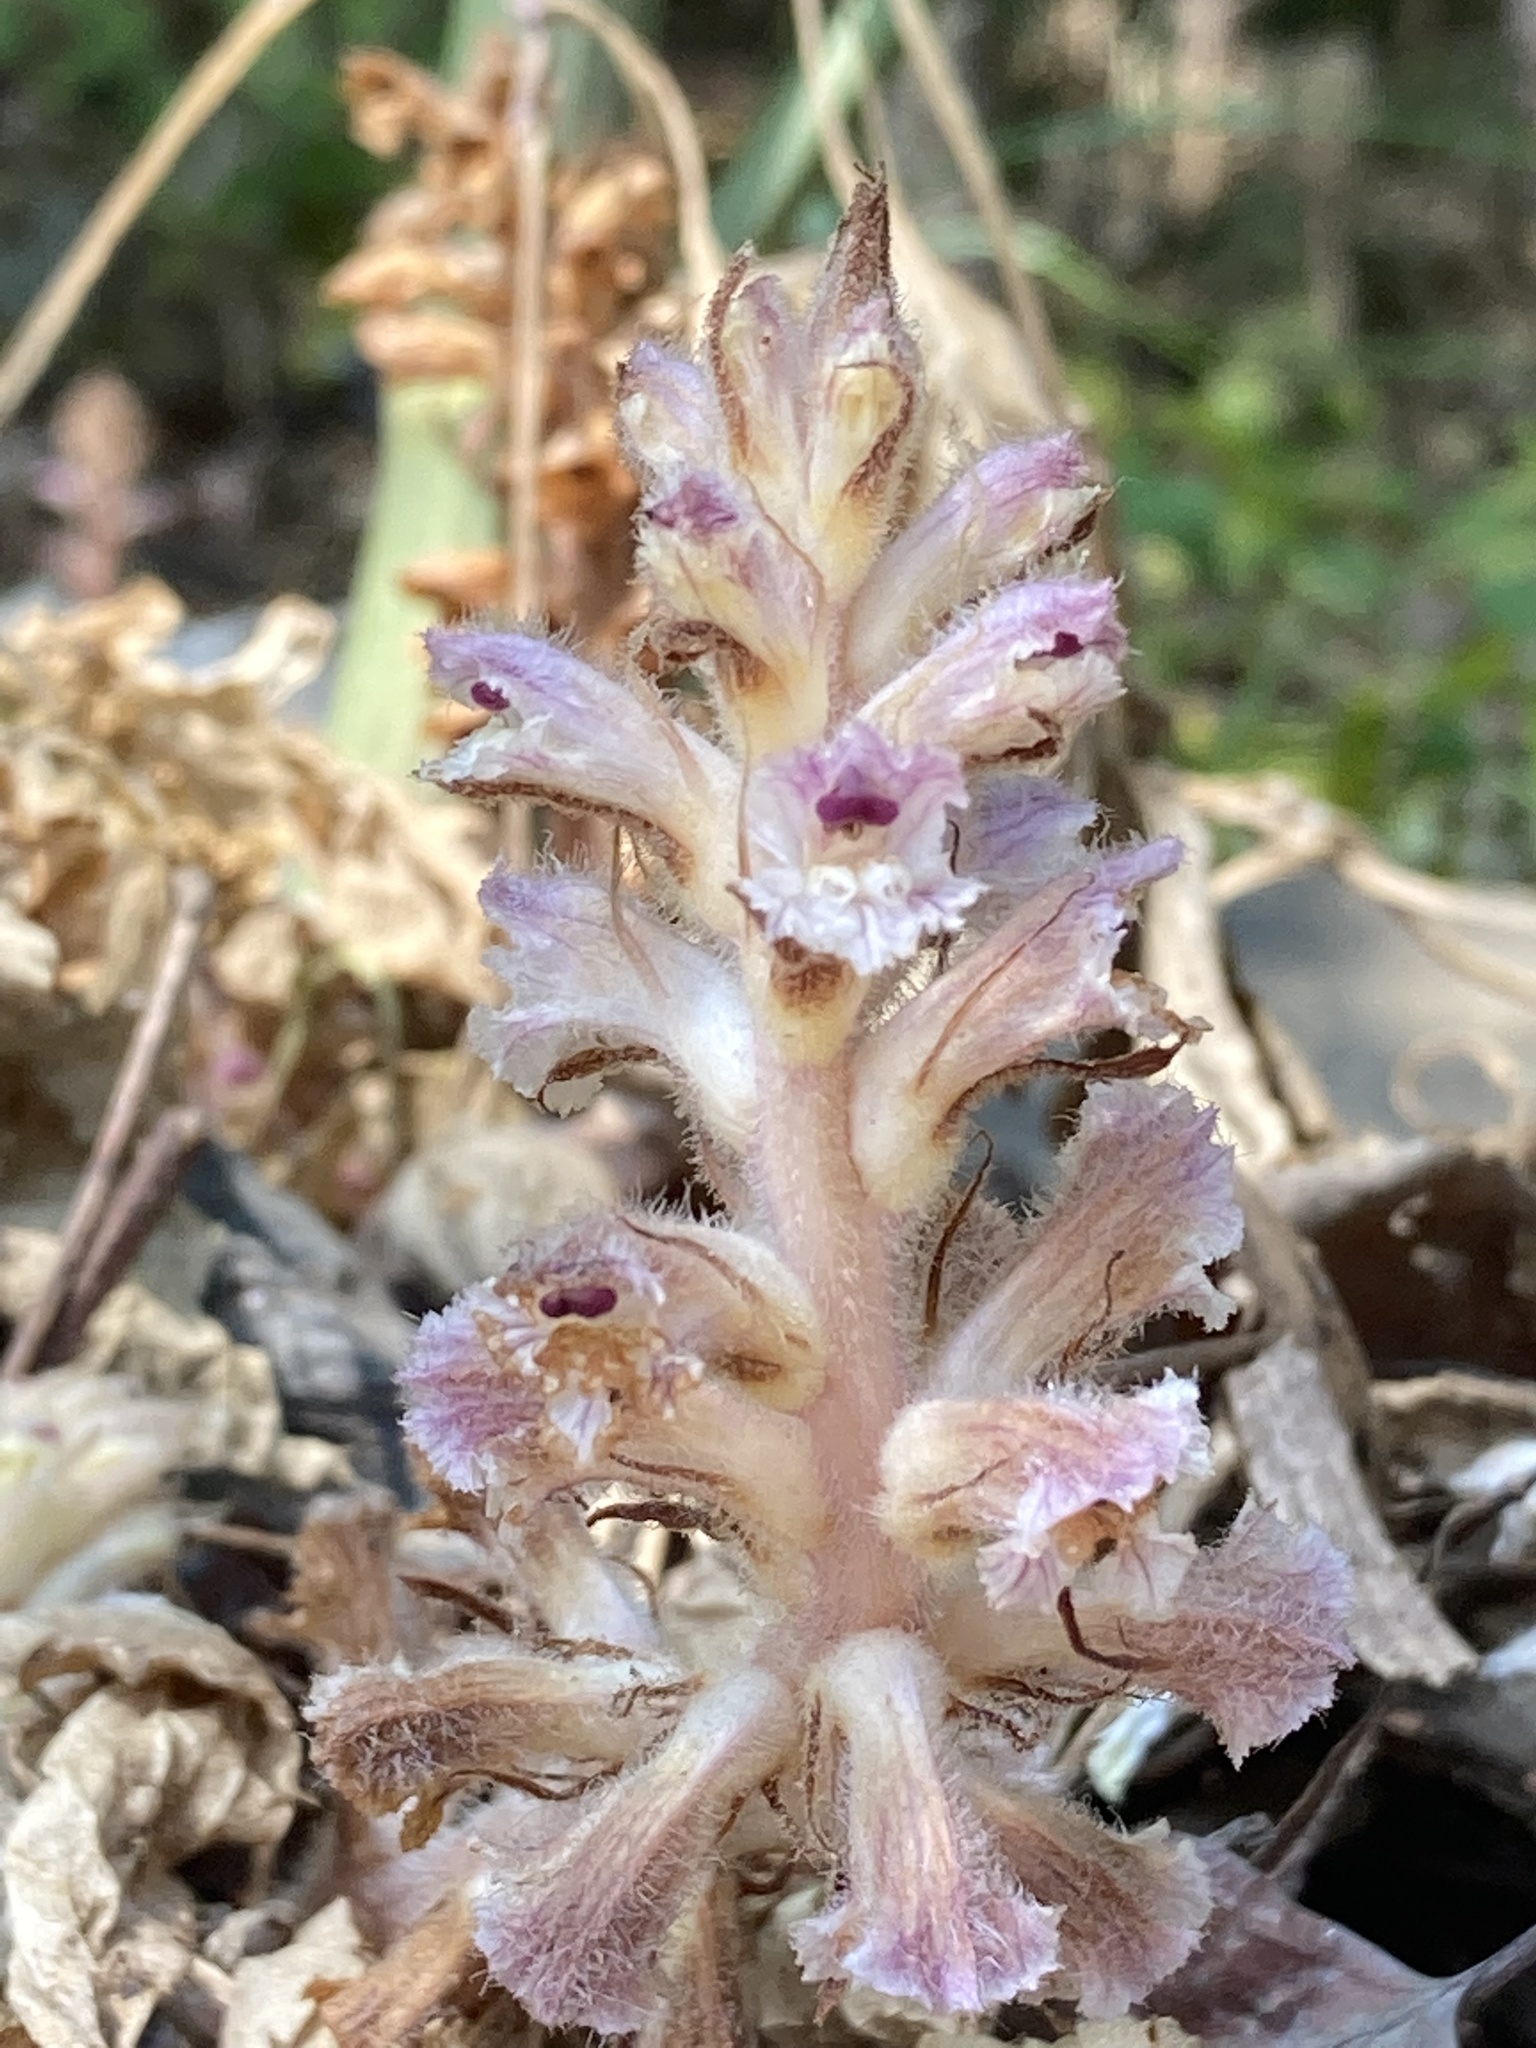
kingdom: Plantae
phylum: Tracheophyta
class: Magnoliopsida
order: Lamiales
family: Orobanchaceae
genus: Orobanche
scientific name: Orobanche pubescens
